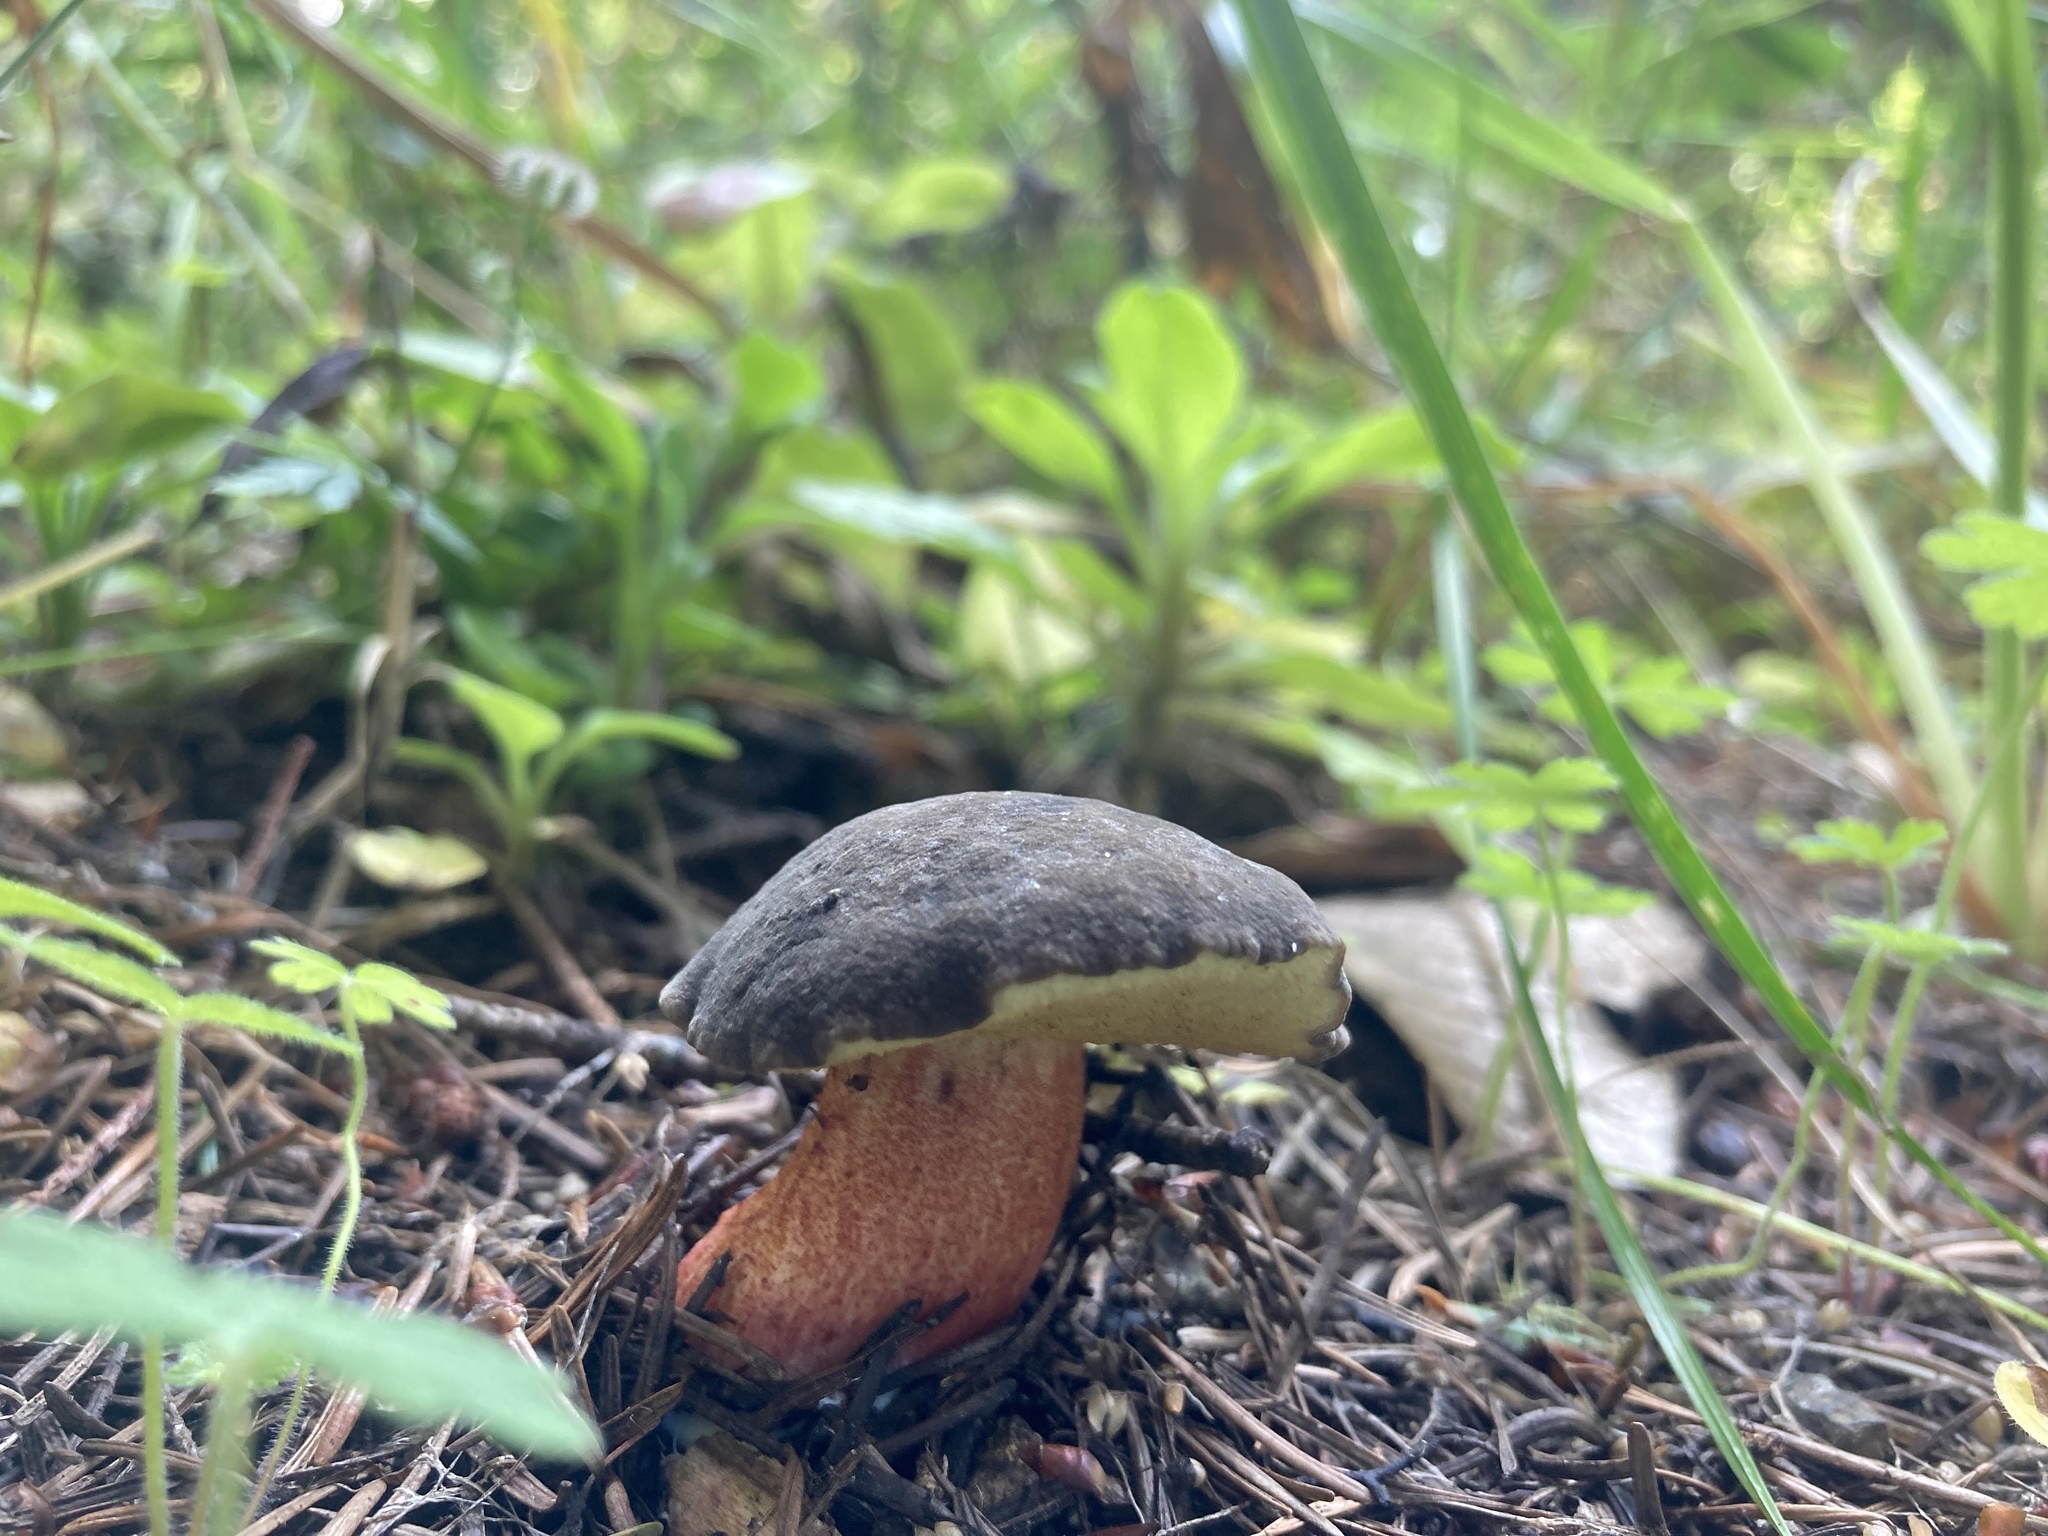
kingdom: Fungi
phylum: Basidiomycota
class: Agaricomycetes
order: Boletales
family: Boletaceae
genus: Xerocomellus
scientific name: Xerocomellus atropurpureus
